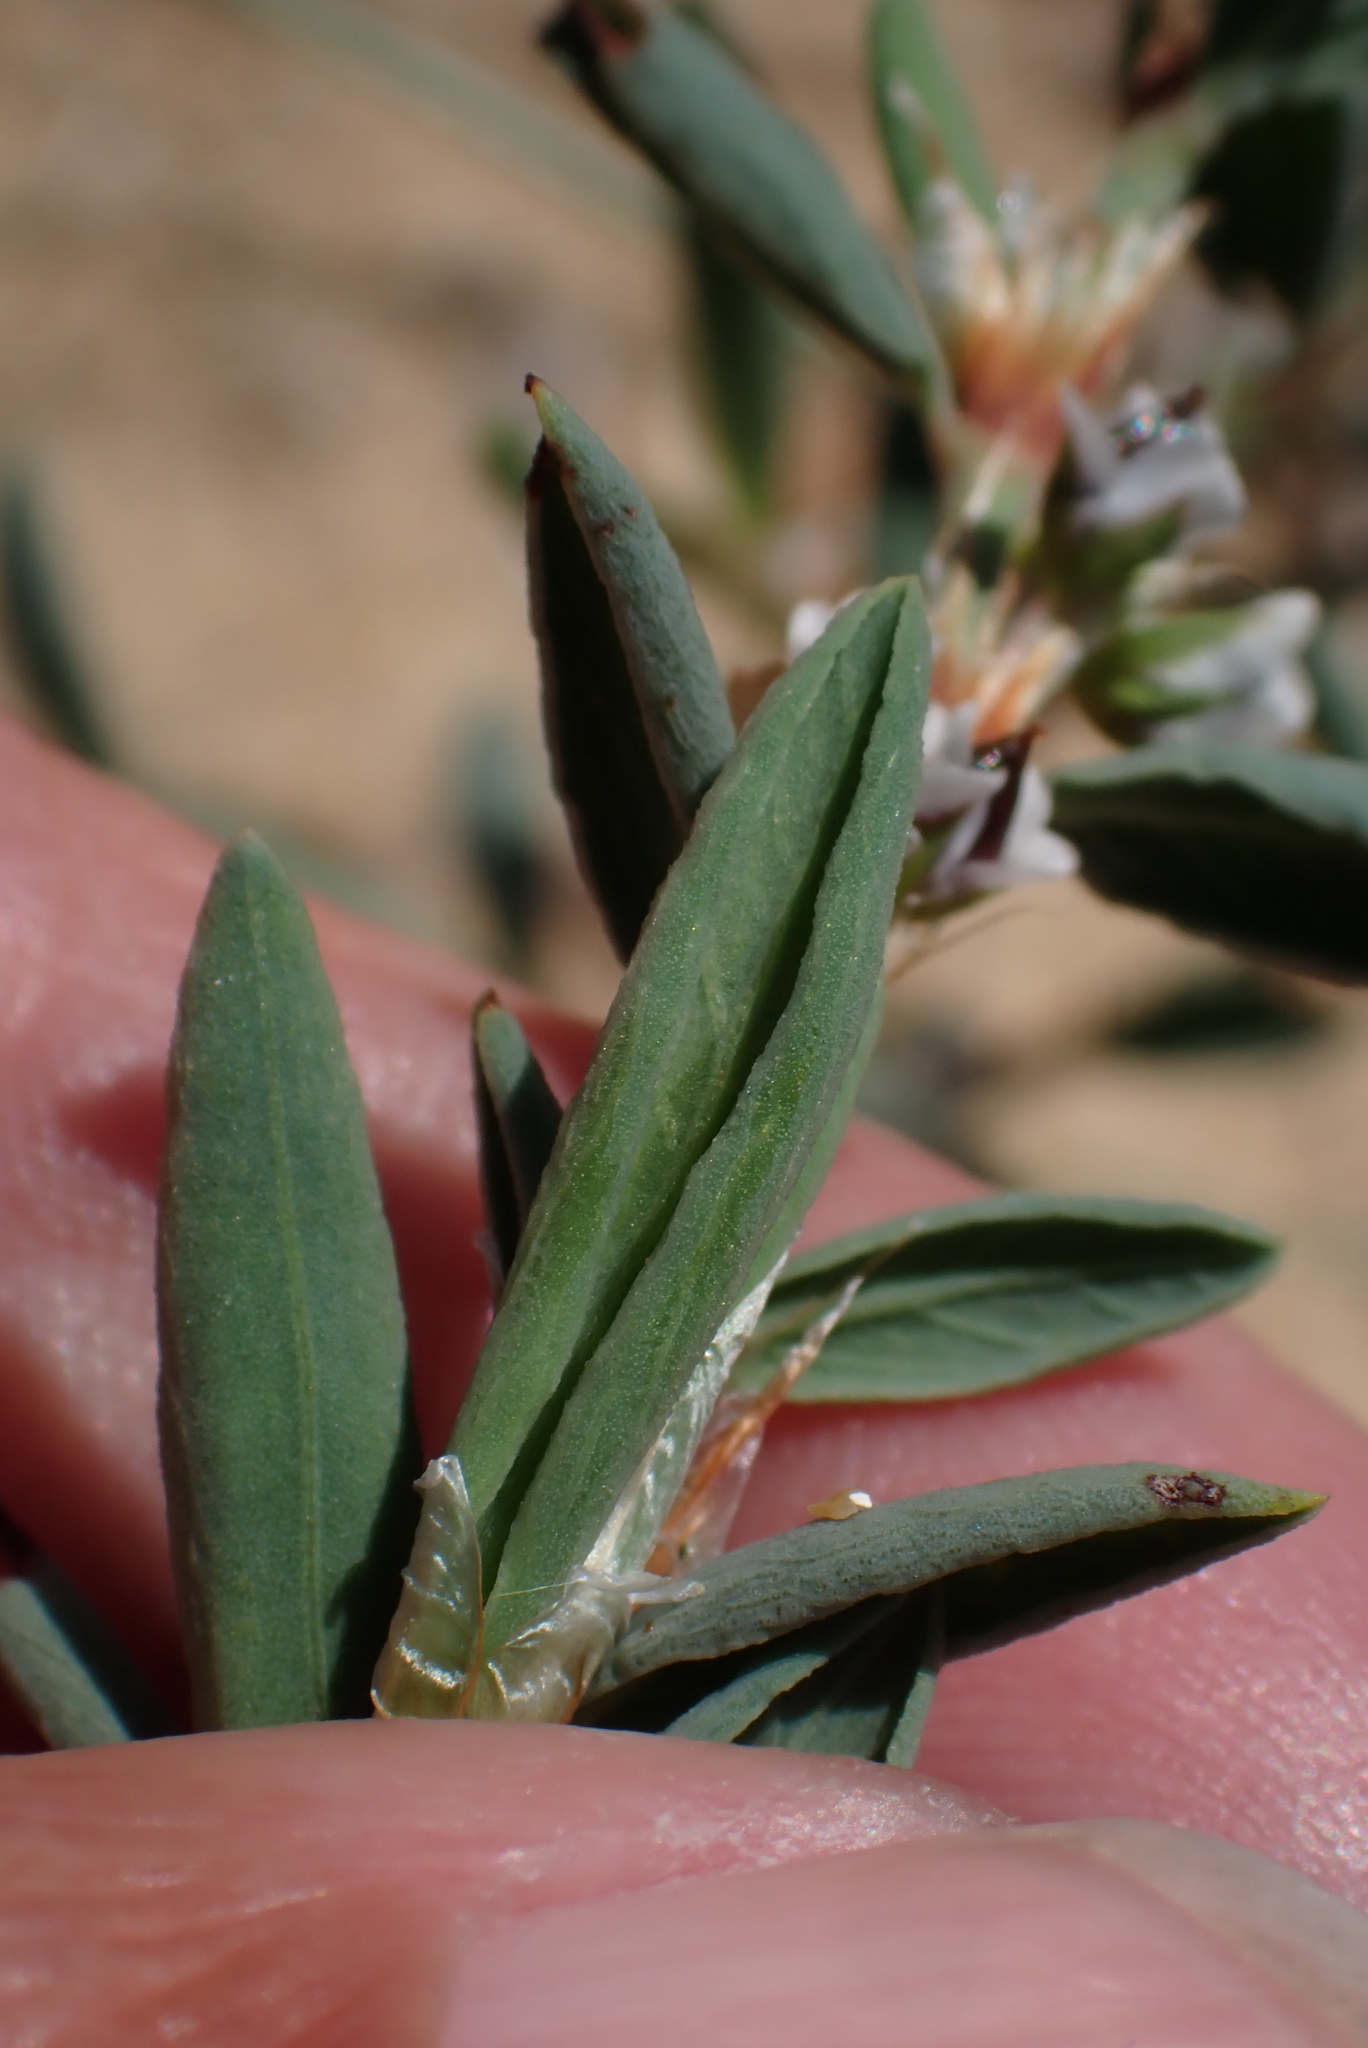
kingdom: Plantae
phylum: Tracheophyta
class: Magnoliopsida
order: Caryophyllales
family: Polygonaceae
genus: Polygonum
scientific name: Polygonum maritimum
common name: Sea knotgrass
